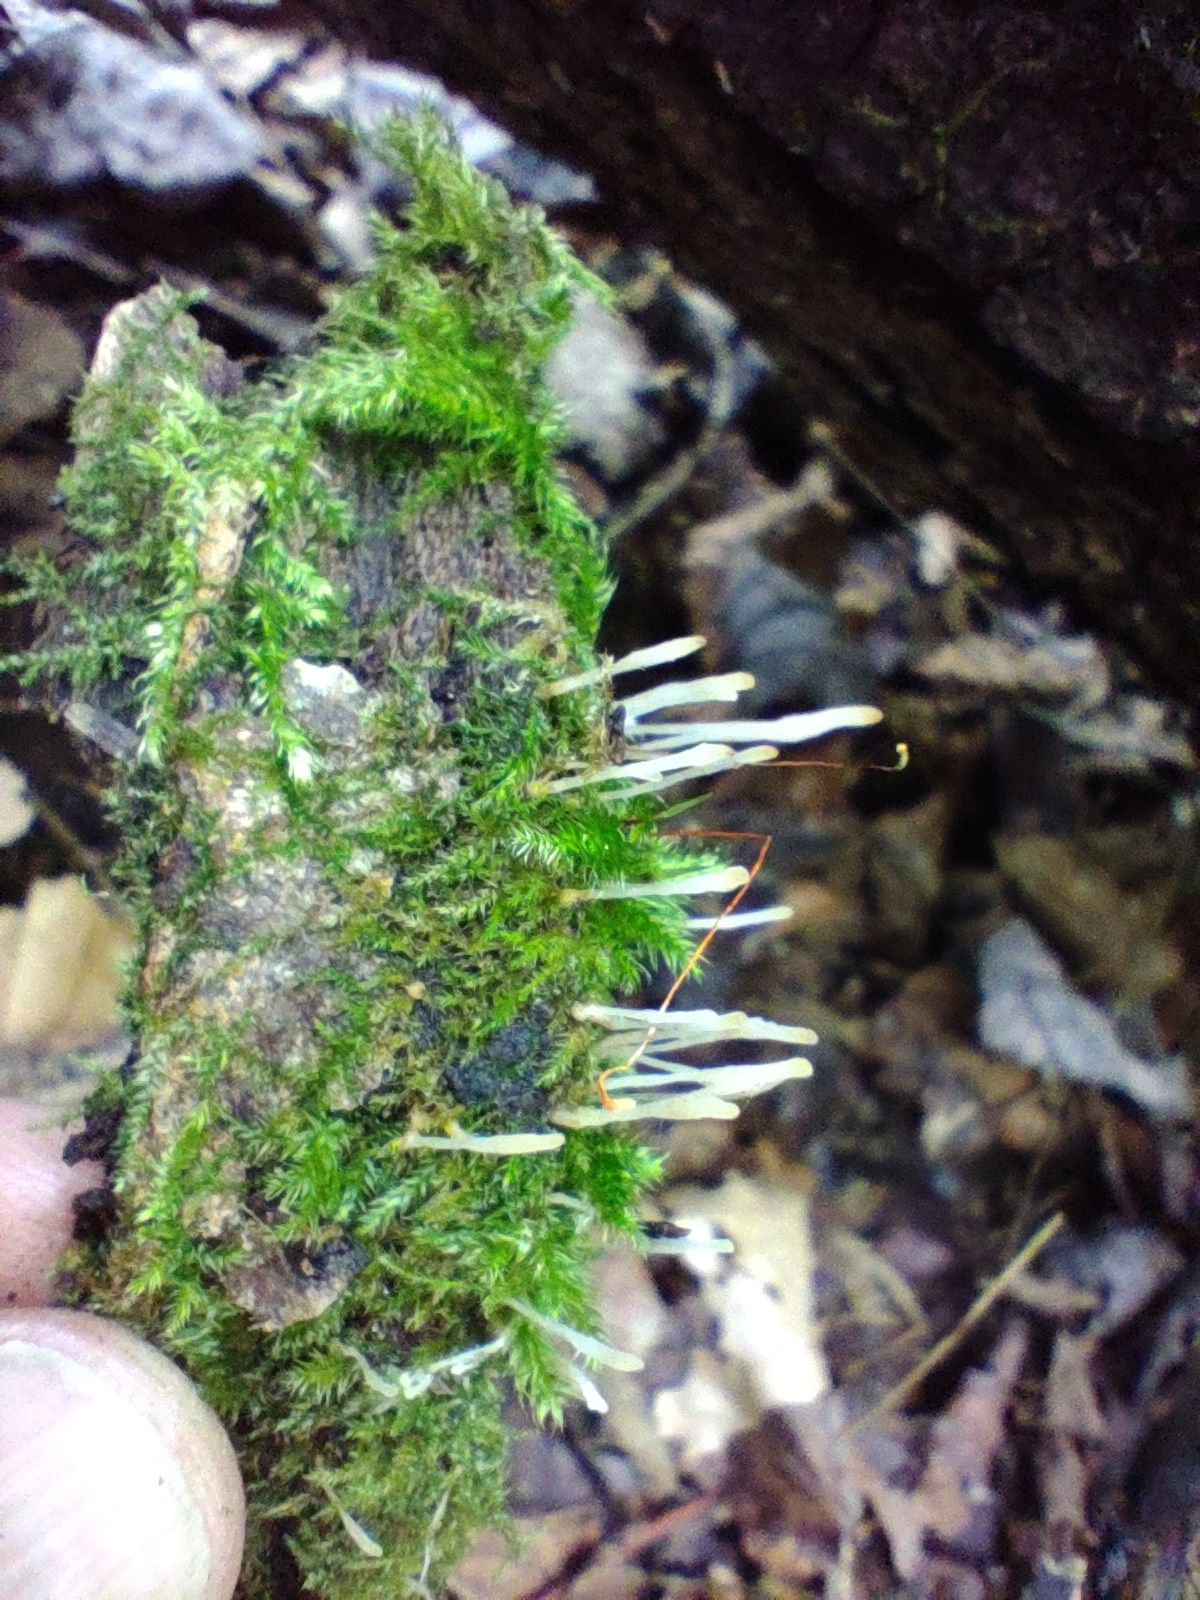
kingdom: Fungi
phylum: Basidiomycota
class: Pucciniomycetes
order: Platygloeales
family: Eocronartiaceae
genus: Eocronartium
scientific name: Eocronartium muscicola
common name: Moss rust
